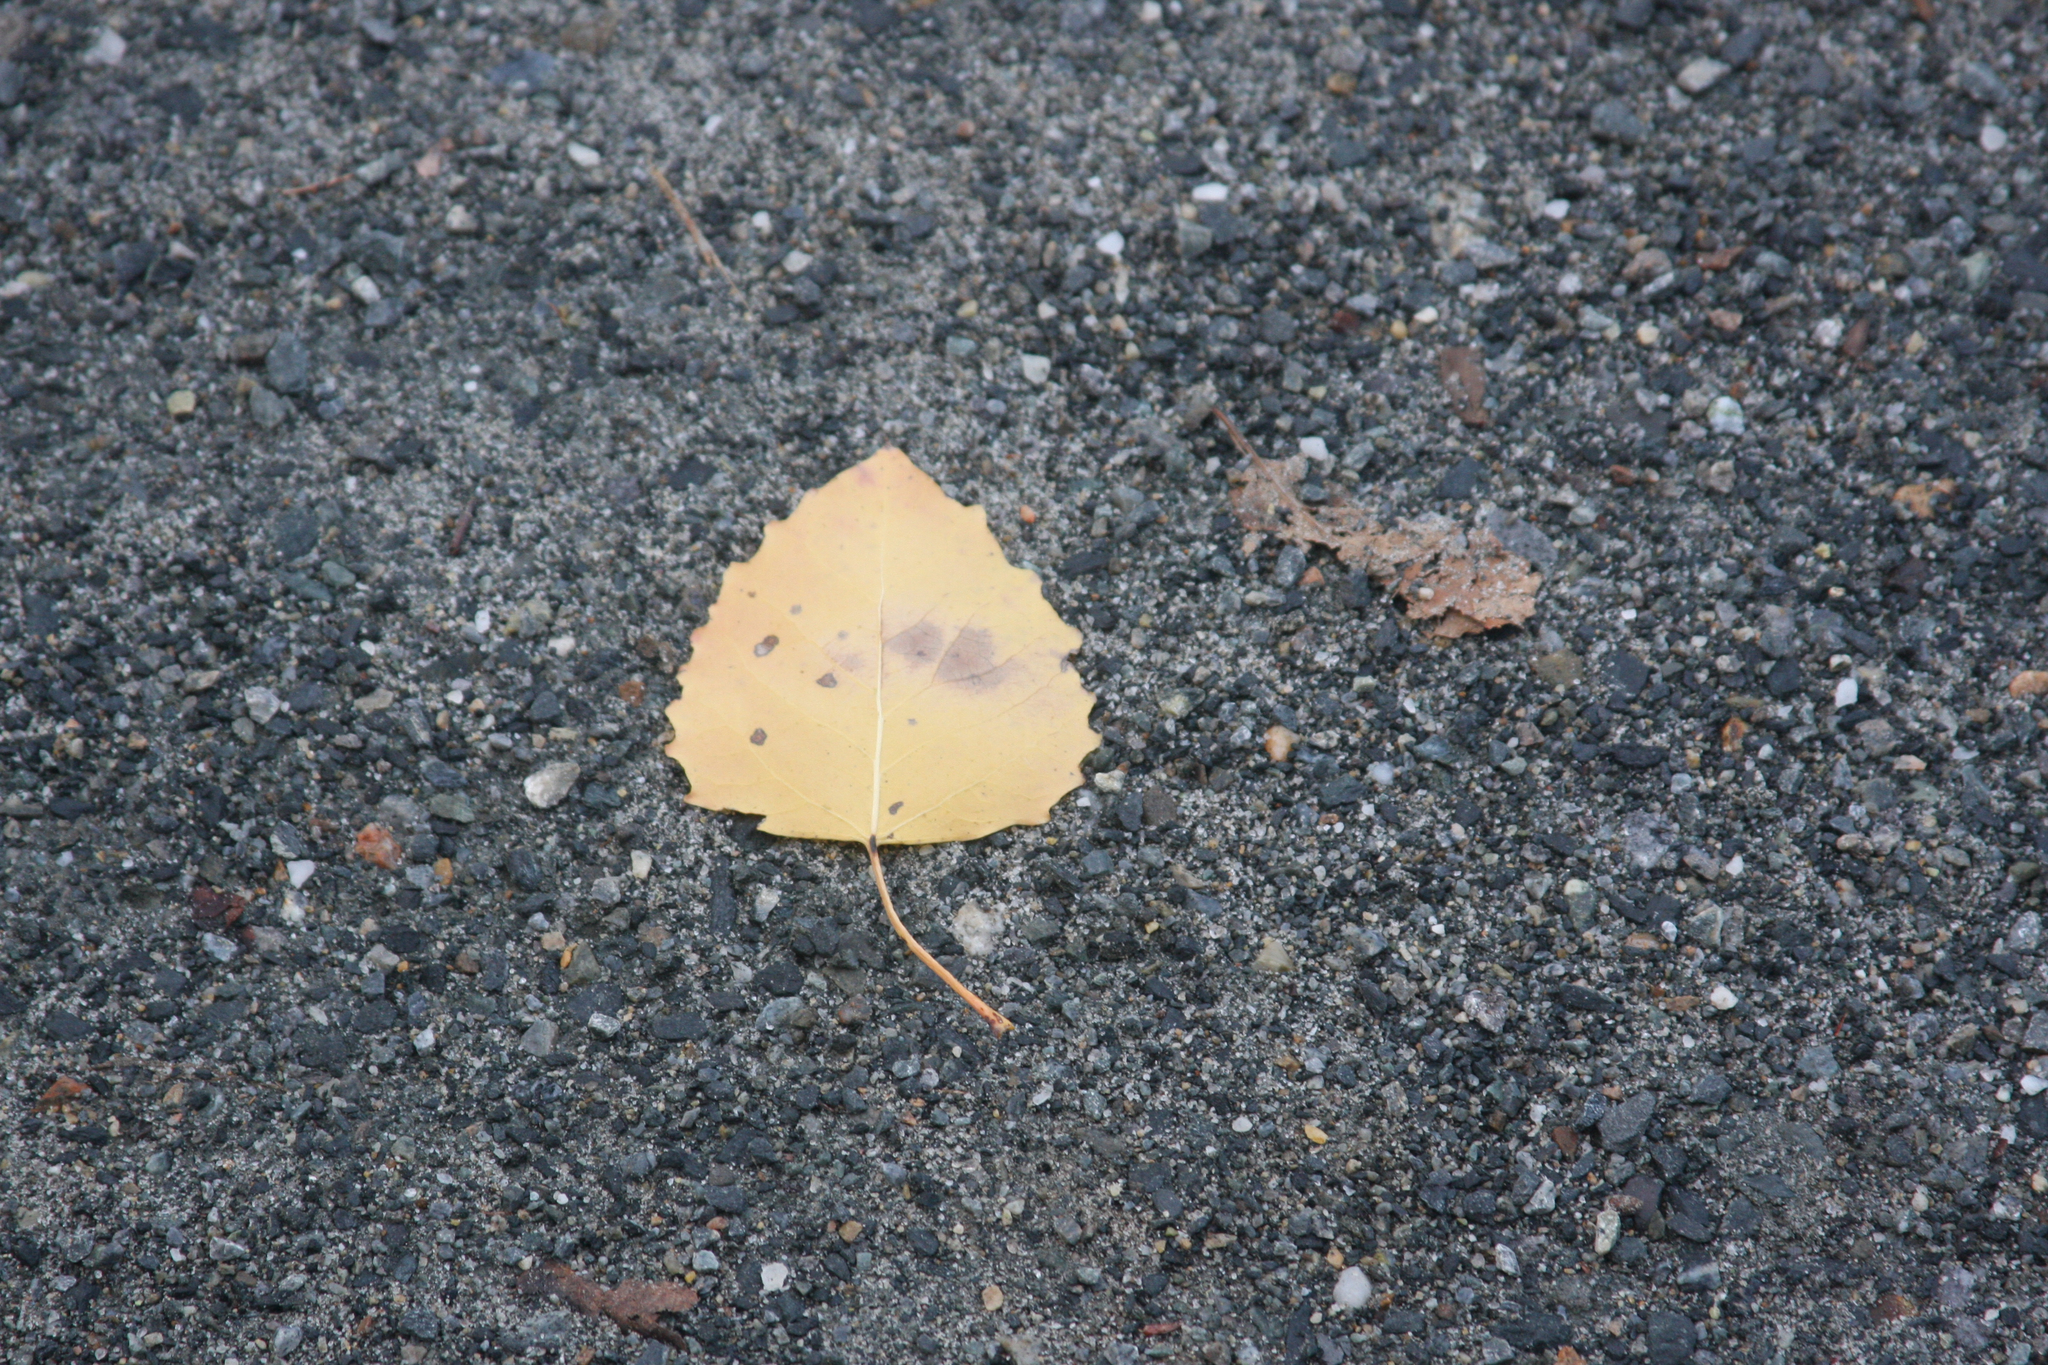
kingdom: Plantae
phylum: Tracheophyta
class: Magnoliopsida
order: Malpighiales
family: Salicaceae
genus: Populus
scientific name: Populus grandidentata
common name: Bigtooth aspen
